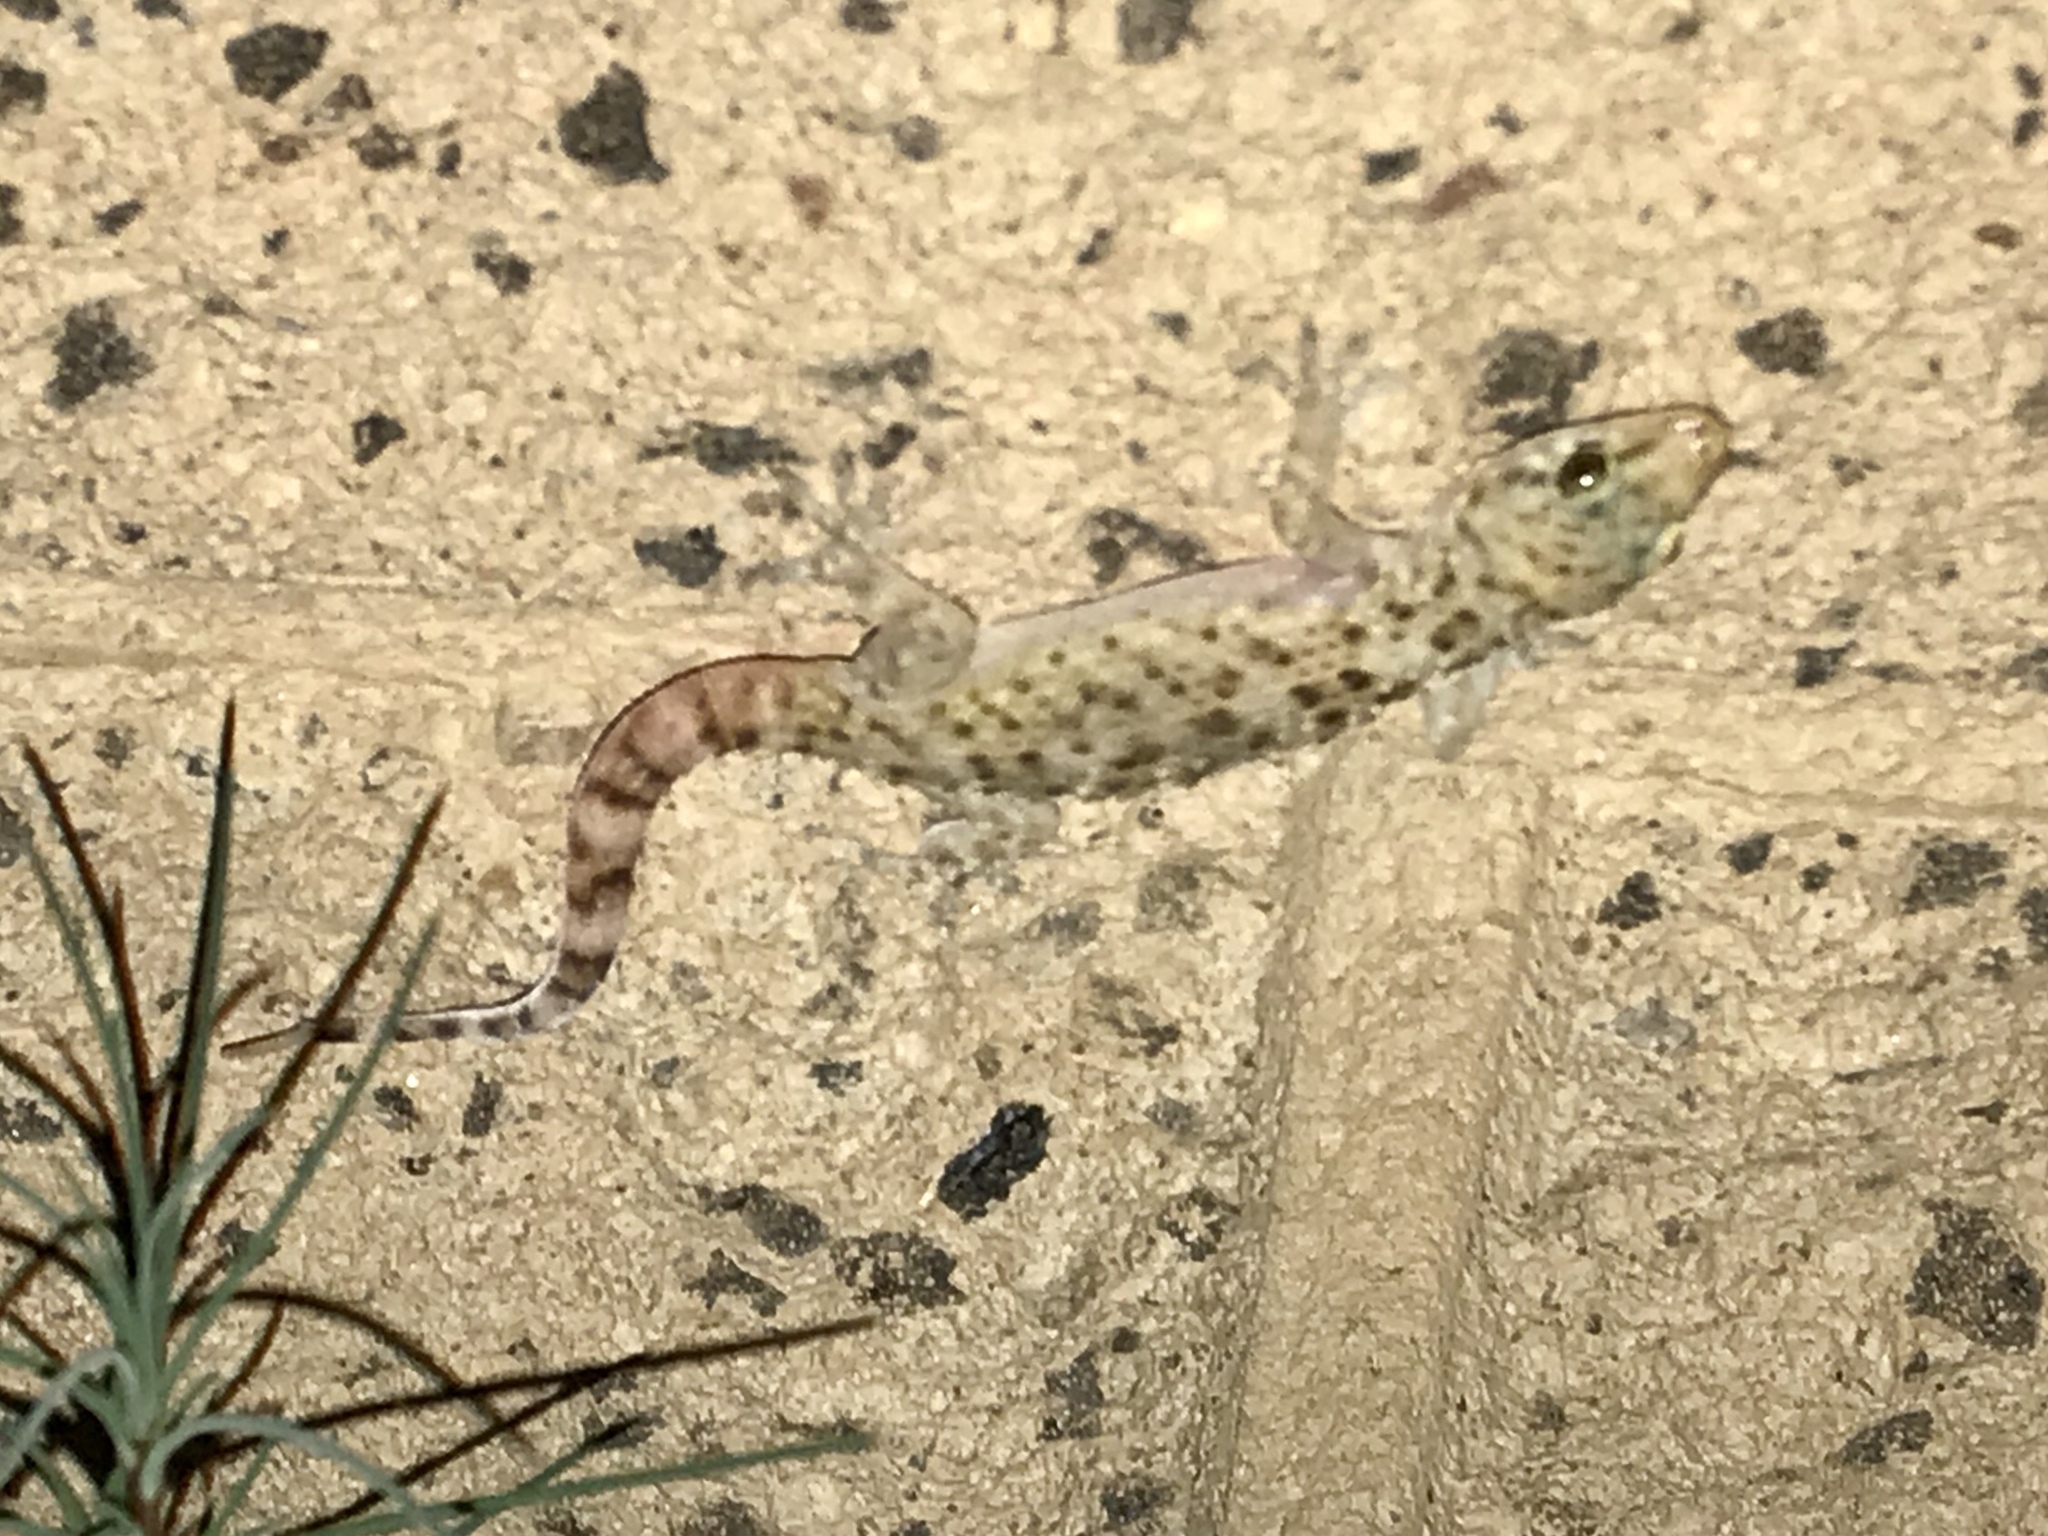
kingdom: Animalia
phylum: Chordata
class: Squamata
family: Gekkonidae
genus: Hemidactylus
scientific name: Hemidactylus turcicus
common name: Turkish gecko
